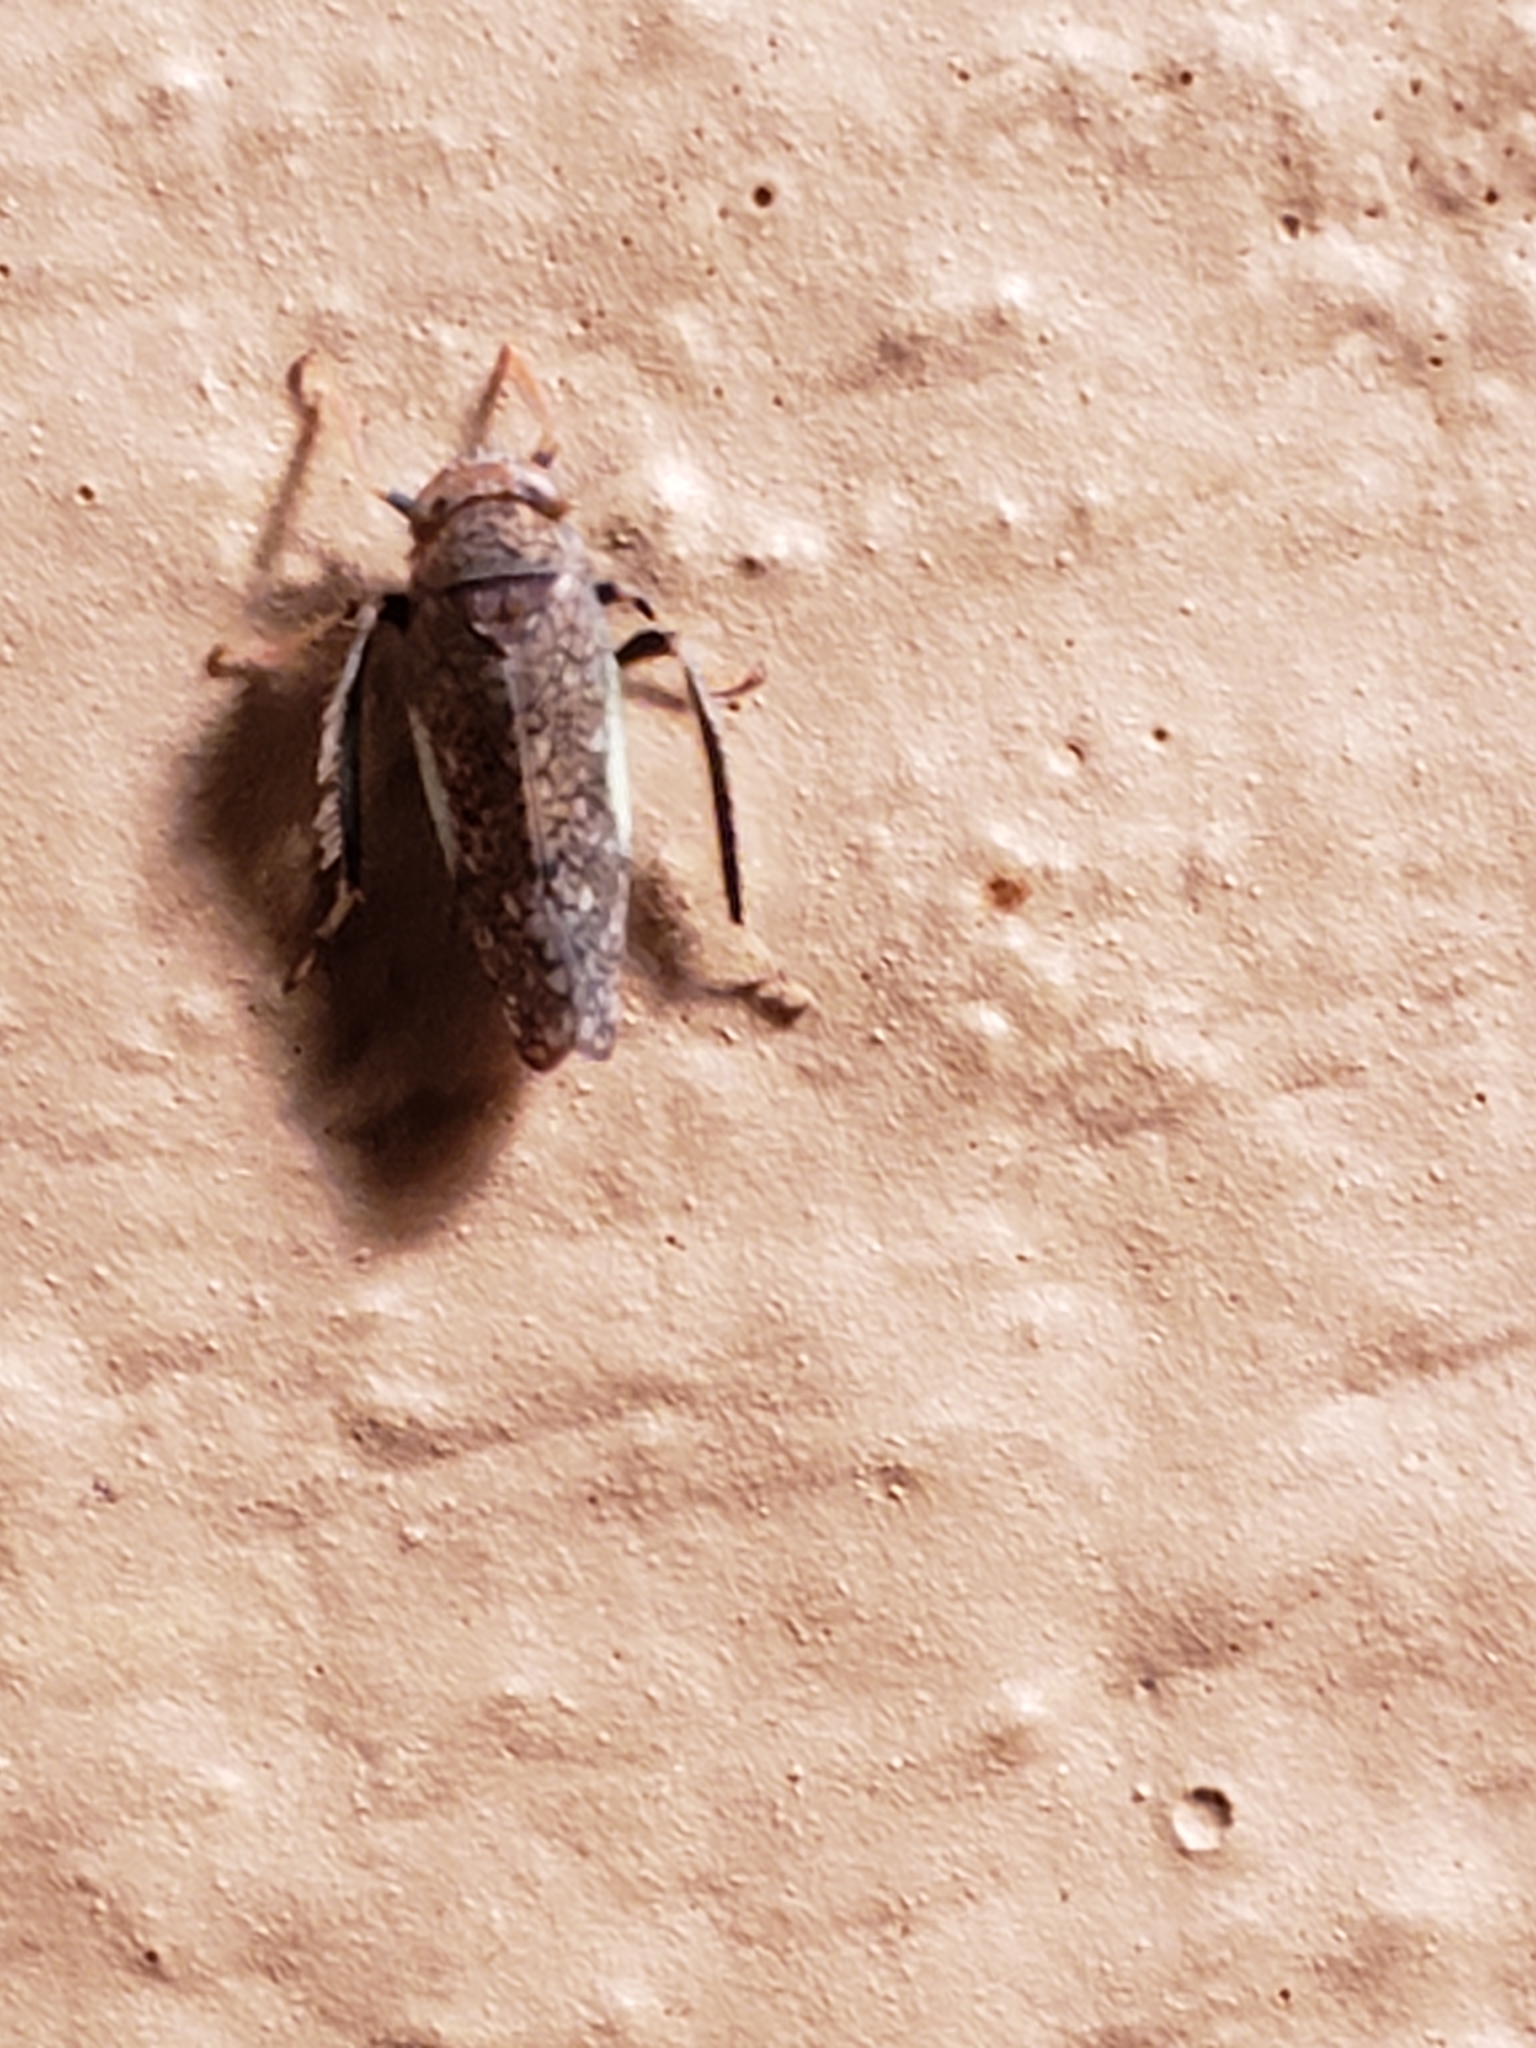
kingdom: Animalia
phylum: Arthropoda
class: Insecta
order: Hemiptera
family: Cicadellidae
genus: Orientus
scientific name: Orientus ishidae
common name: Japanese leafhopper
